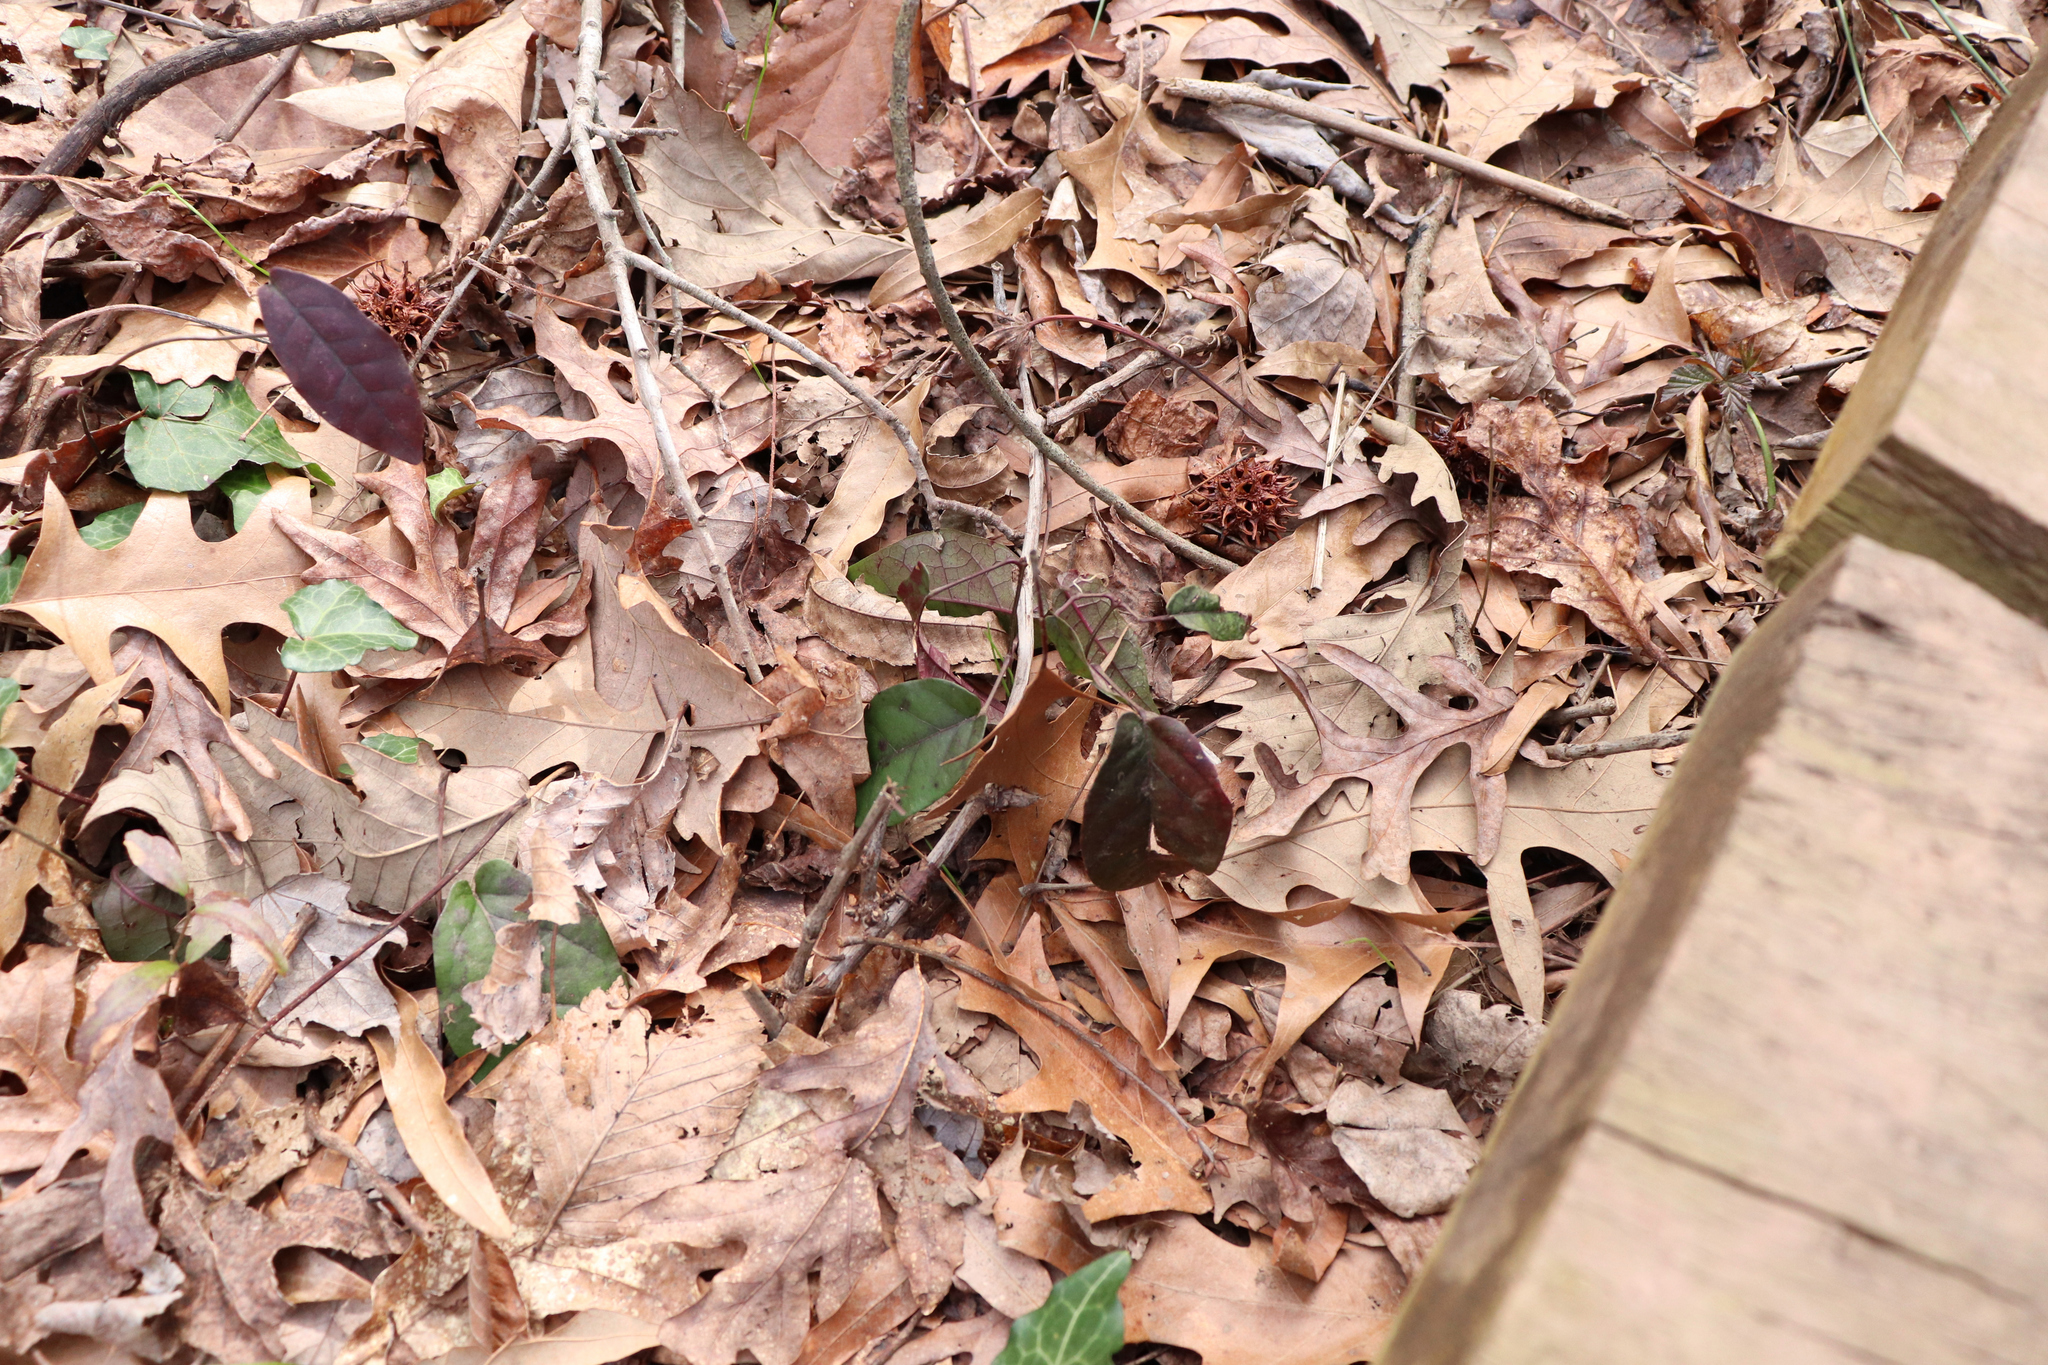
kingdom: Plantae
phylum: Tracheophyta
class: Magnoliopsida
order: Lamiales
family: Bignoniaceae
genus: Bignonia
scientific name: Bignonia capreolata
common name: Crossvine
